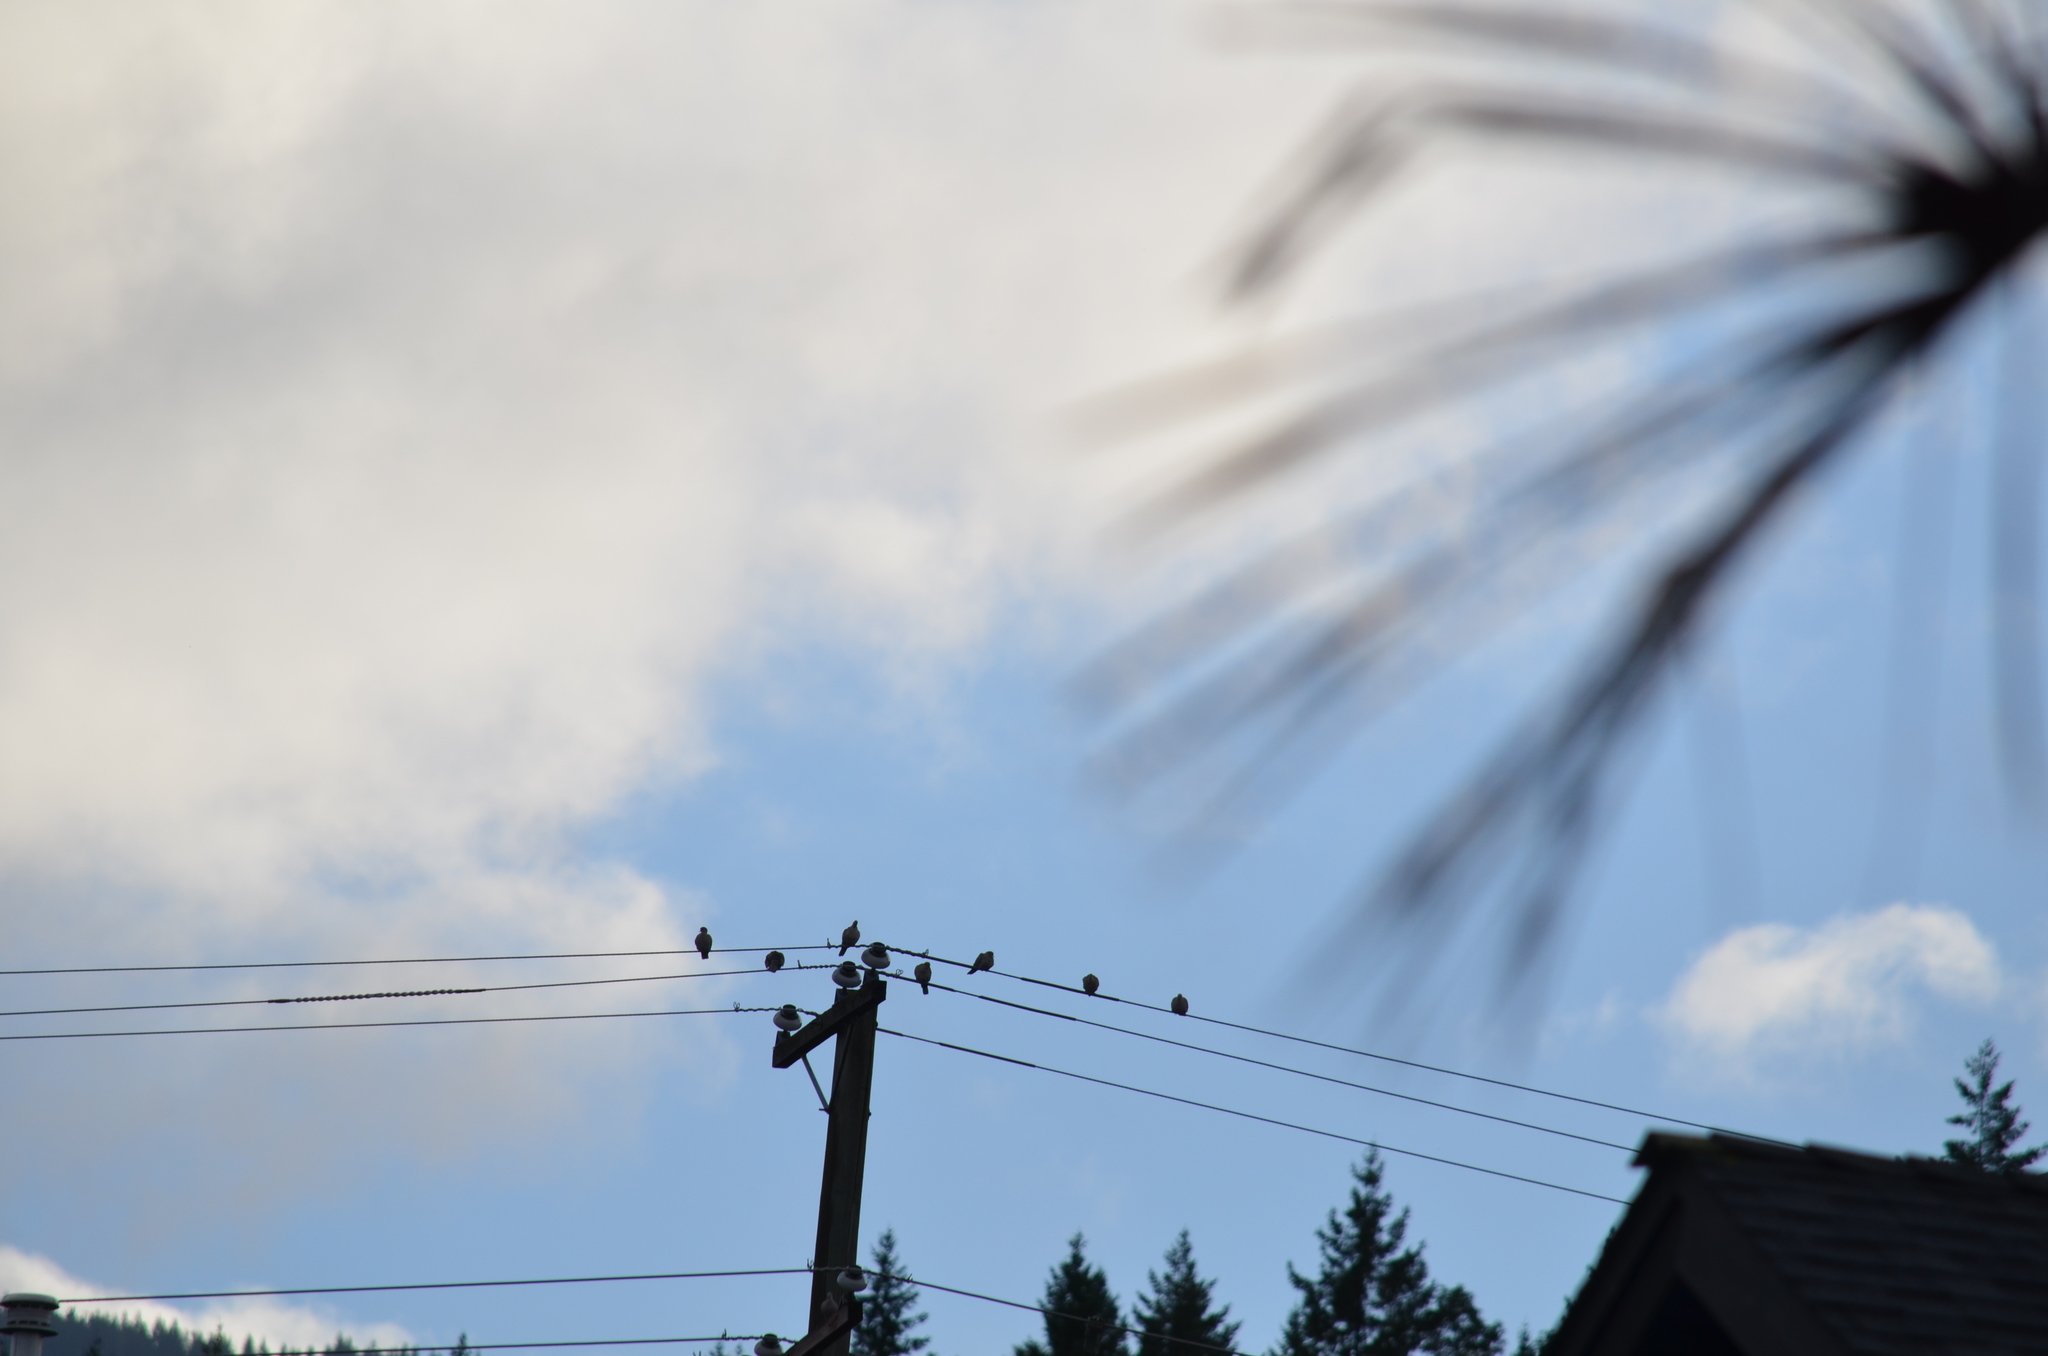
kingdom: Animalia
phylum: Chordata
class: Aves
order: Columbiformes
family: Columbidae
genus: Streptopelia
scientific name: Streptopelia decaocto
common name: Eurasian collared dove
